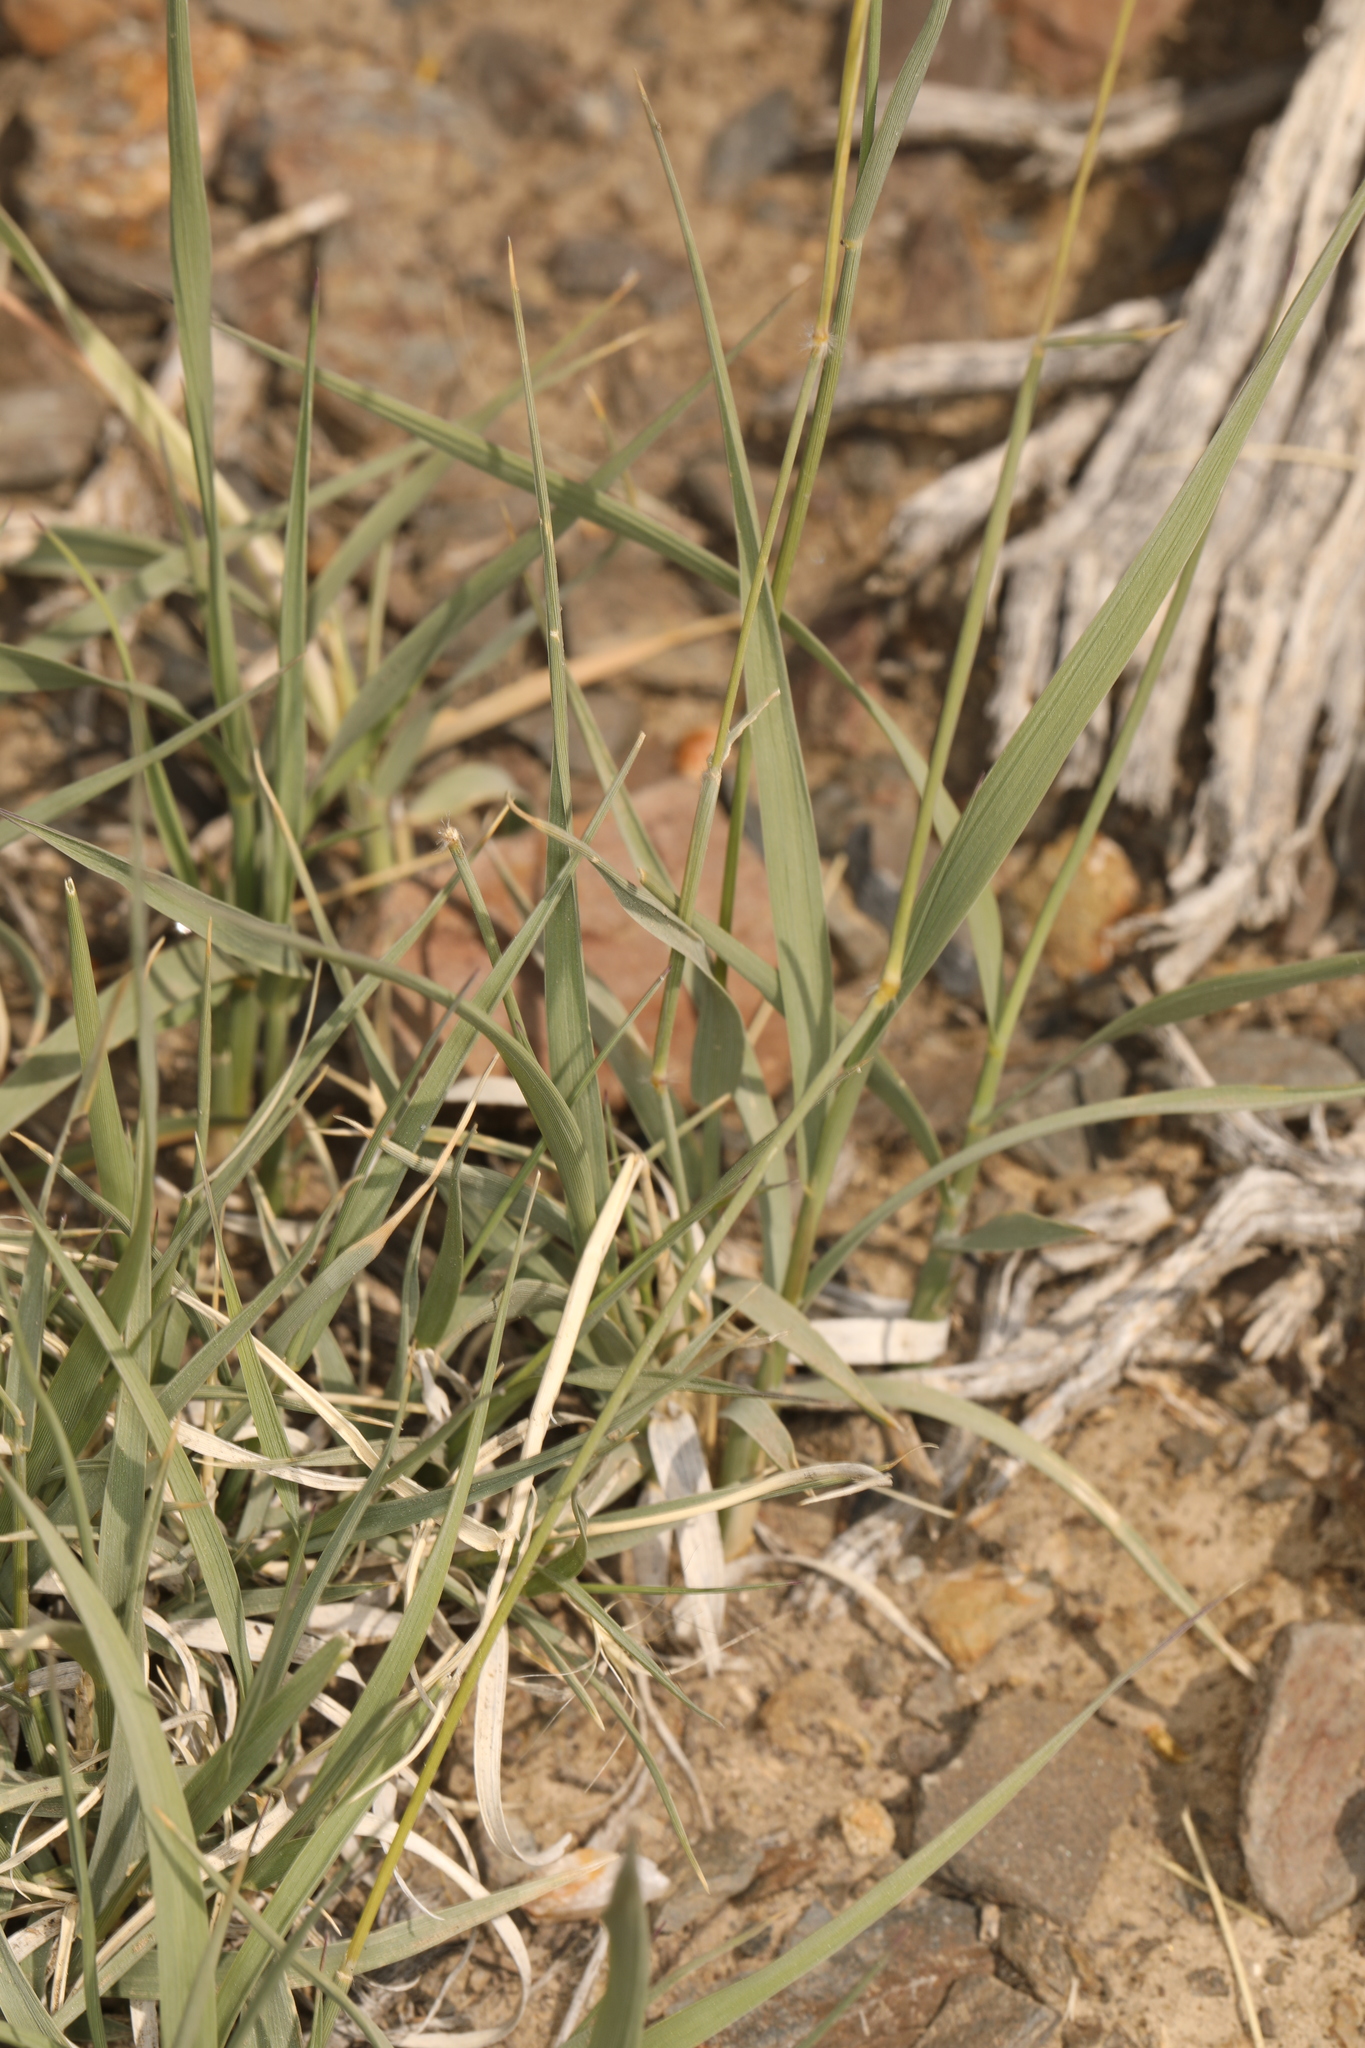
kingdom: Plantae
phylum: Tracheophyta
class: Liliopsida
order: Poales
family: Poaceae
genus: Hilaria
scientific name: Hilaria jamesii
